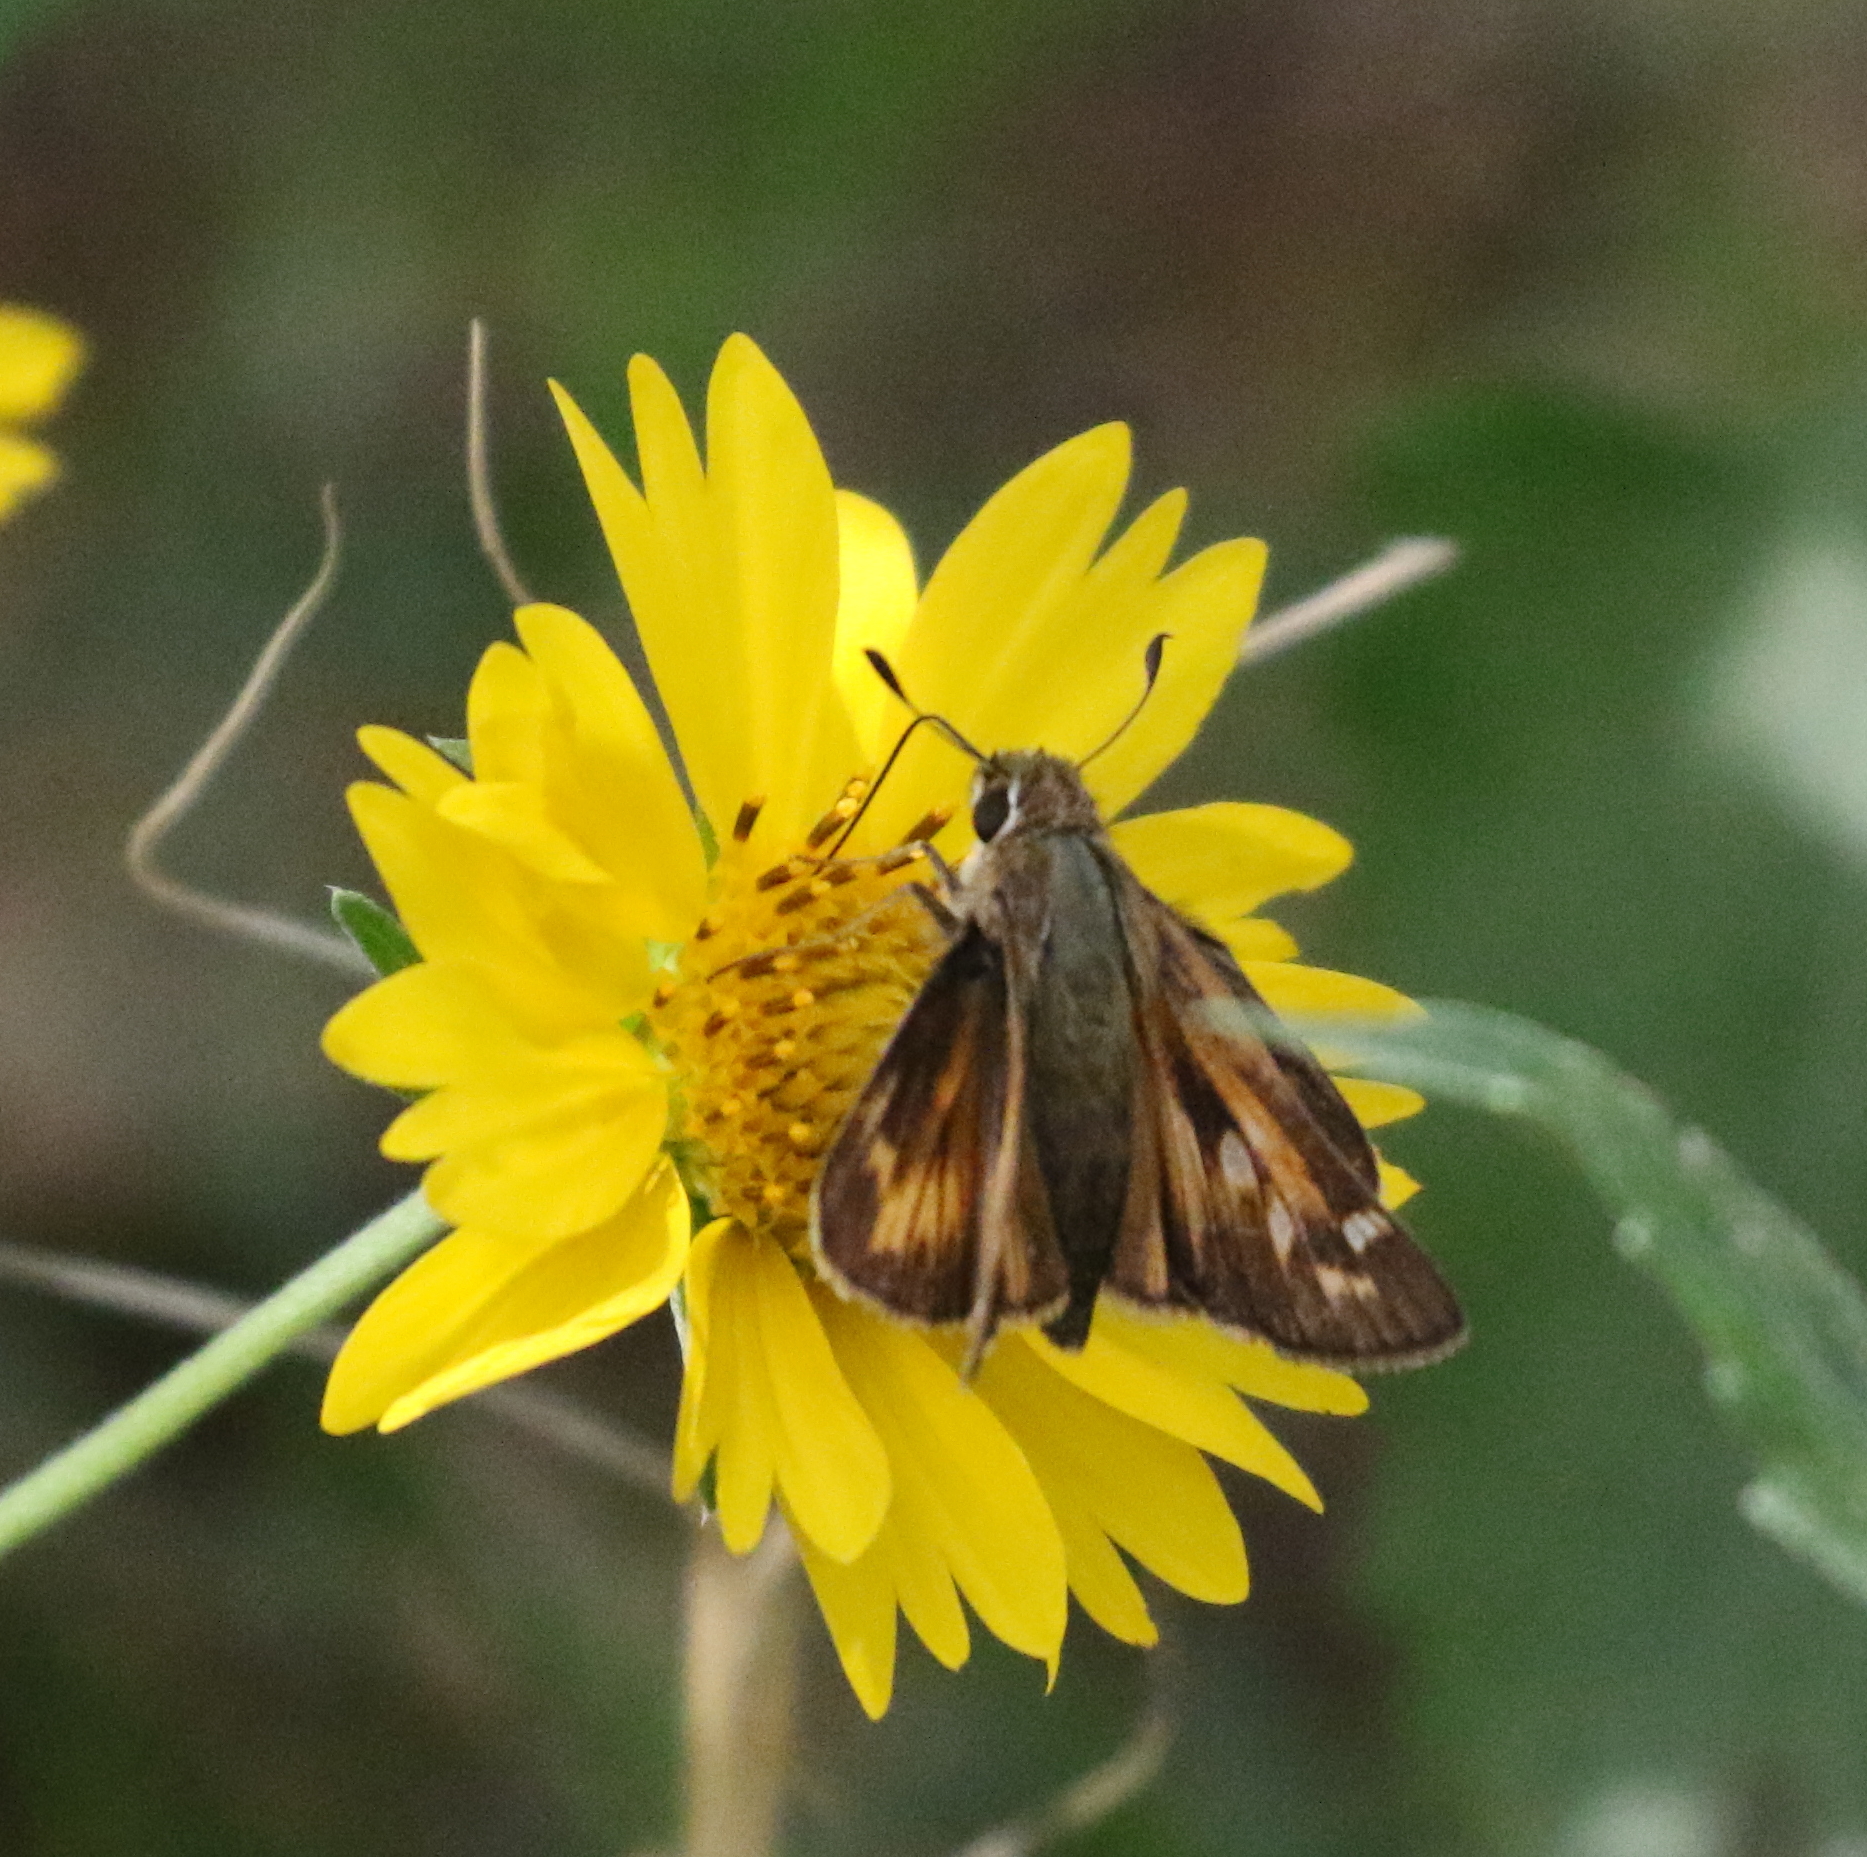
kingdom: Animalia
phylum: Arthropoda
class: Insecta
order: Lepidoptera
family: Hesperiidae
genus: Atalopedes
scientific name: Atalopedes
